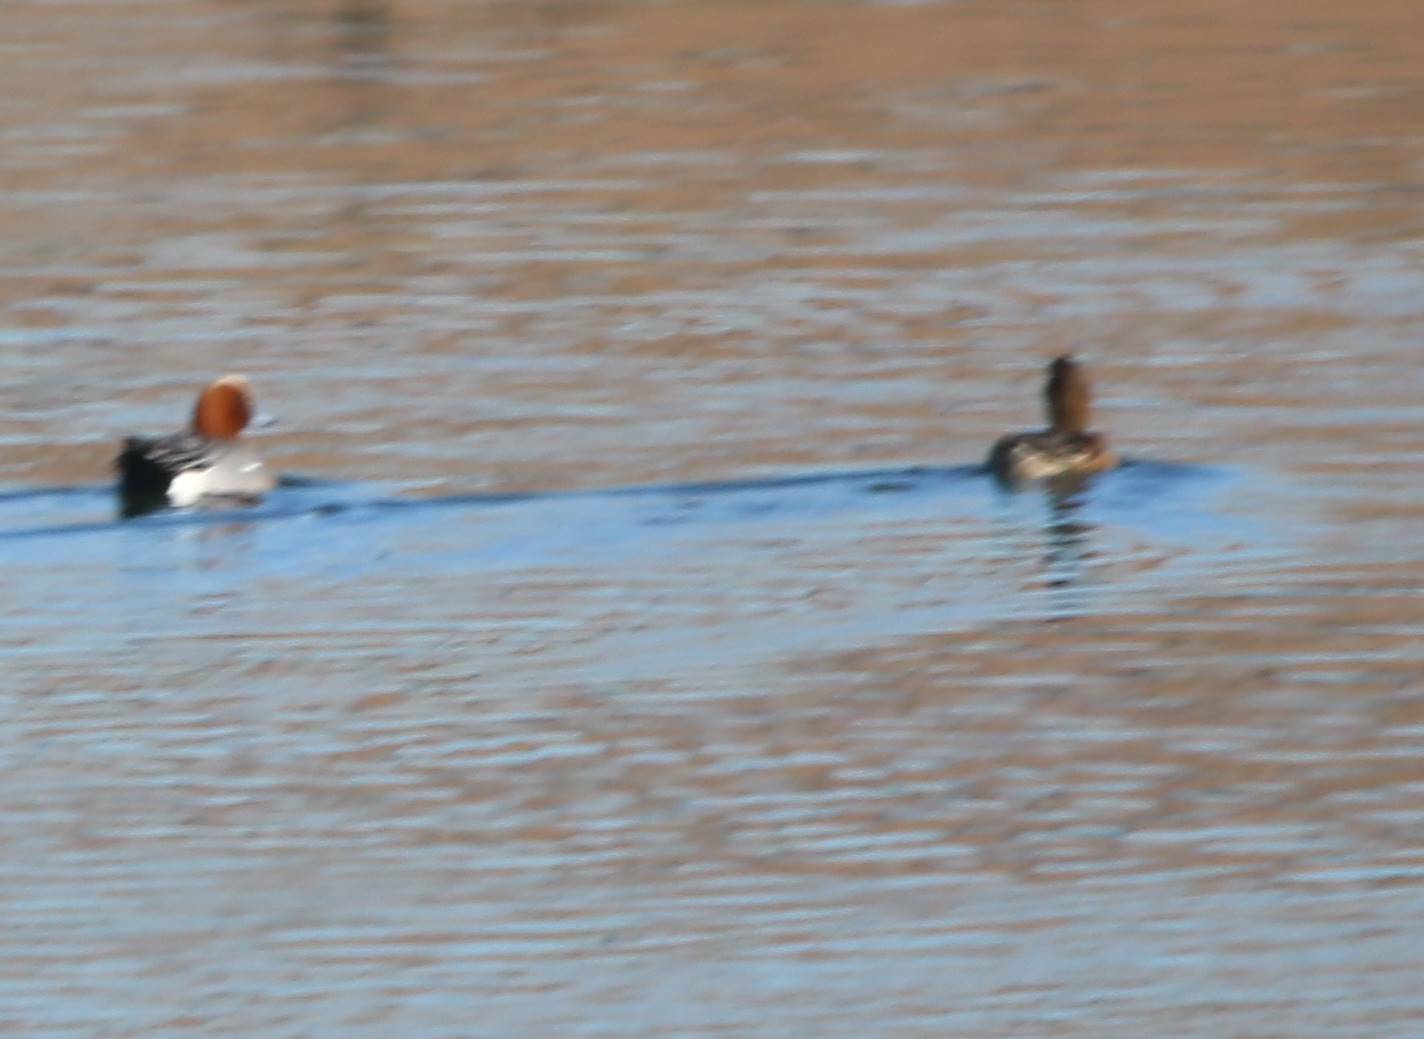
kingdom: Animalia
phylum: Chordata
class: Aves
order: Anseriformes
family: Anatidae
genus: Mareca
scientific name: Mareca penelope
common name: Eurasian wigeon
